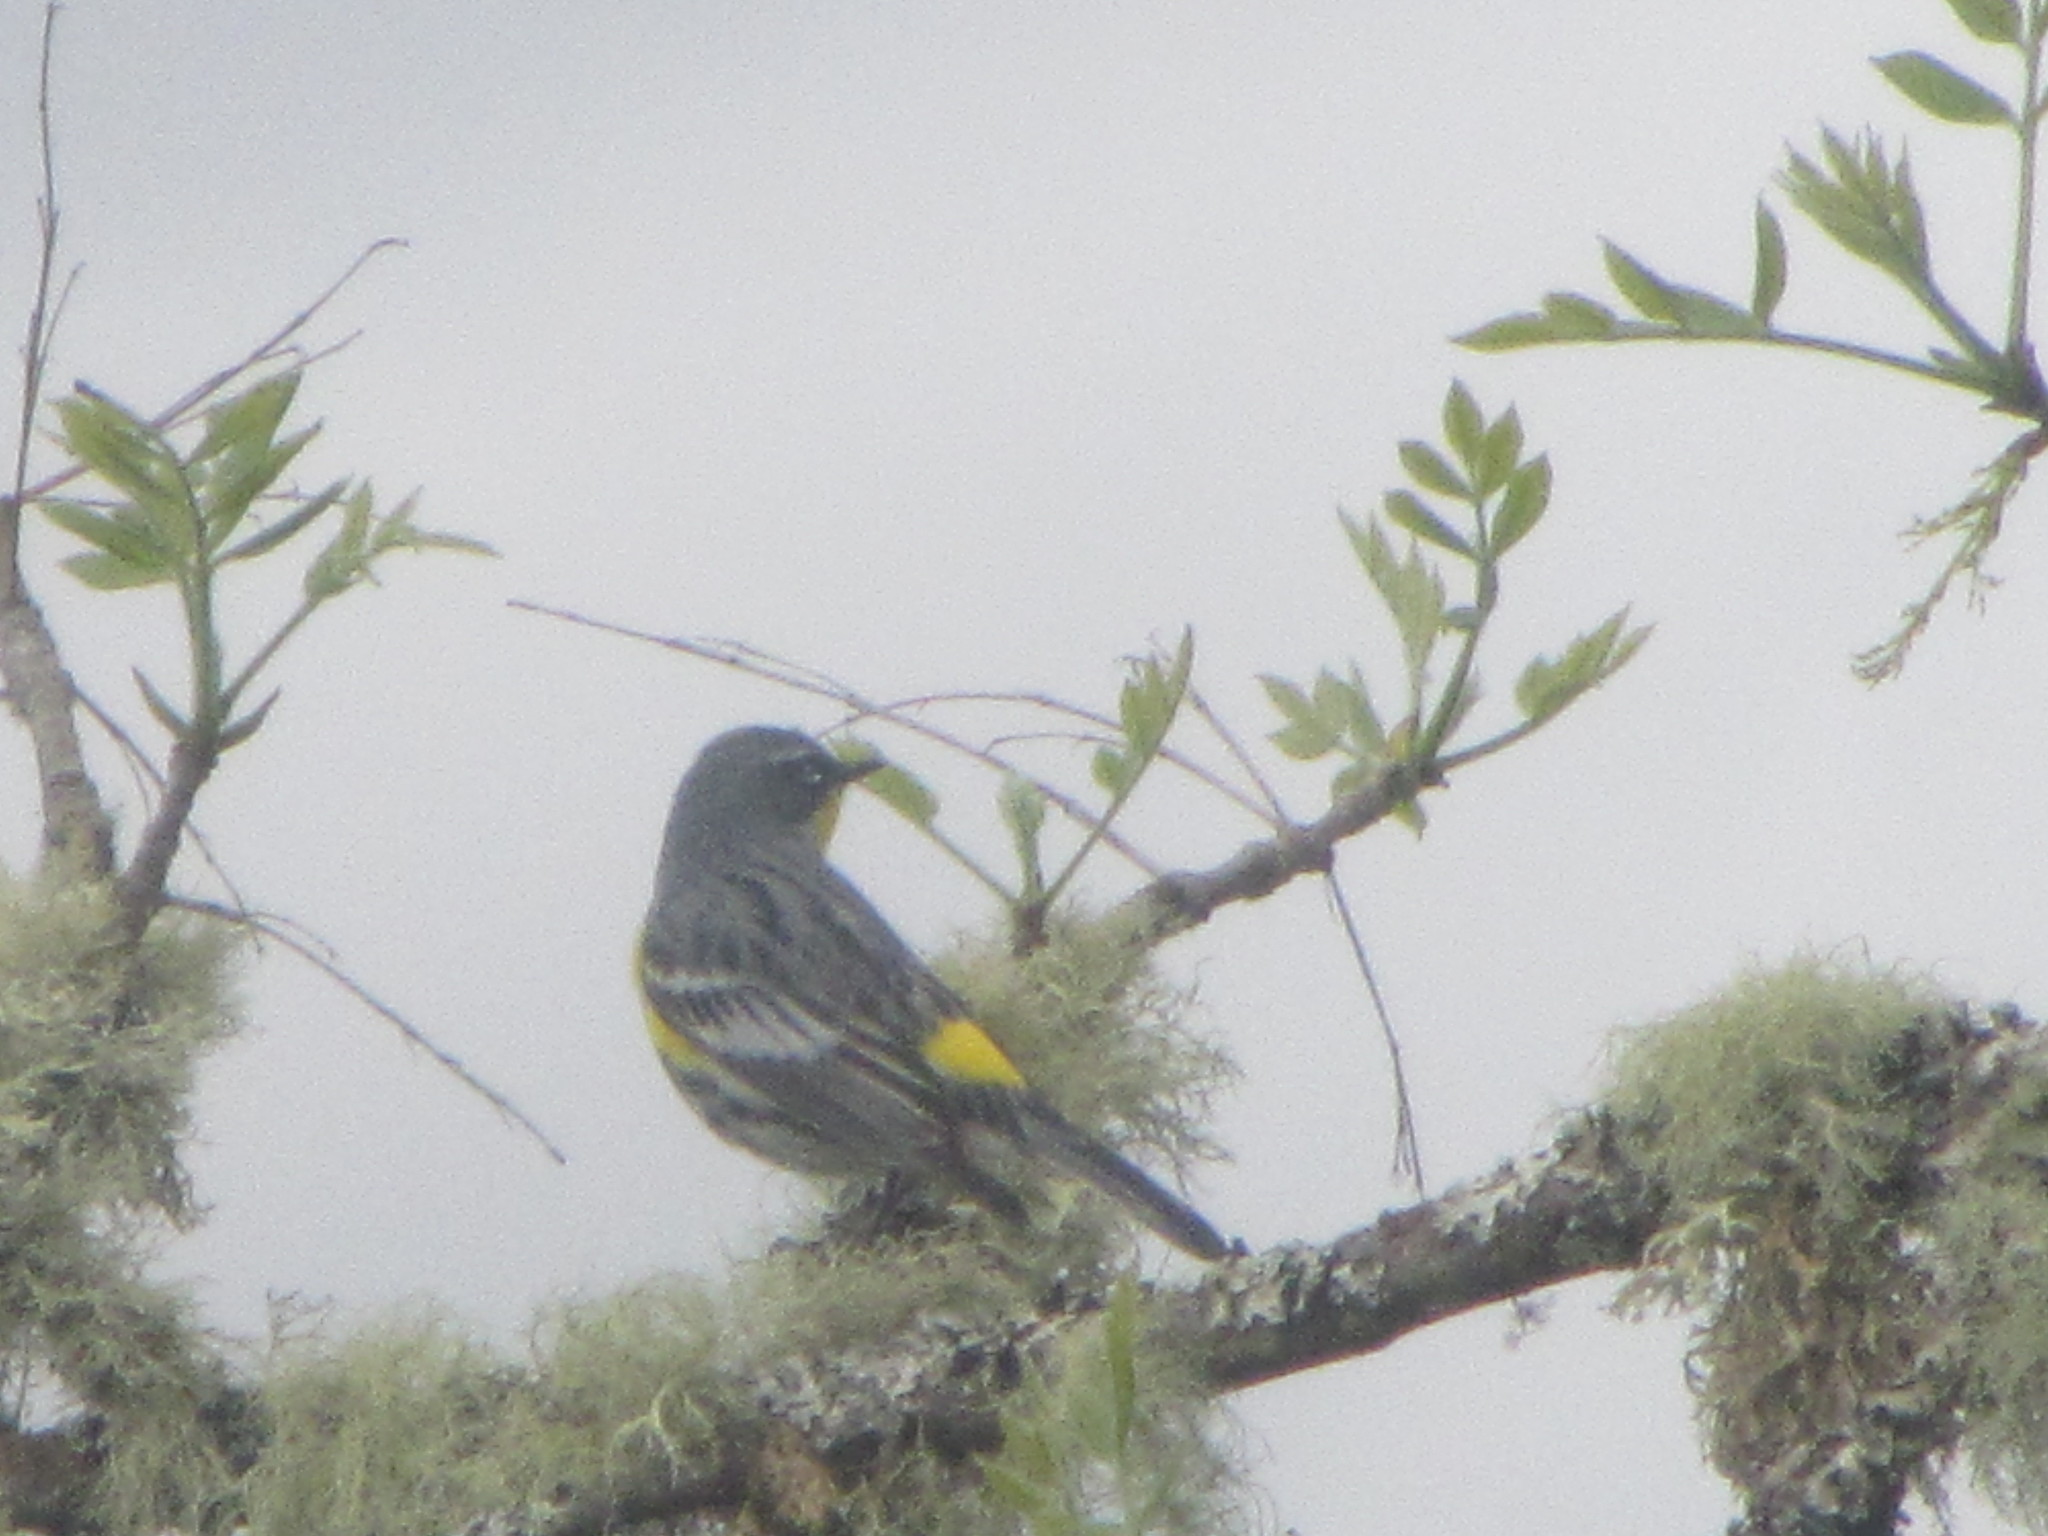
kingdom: Animalia
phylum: Chordata
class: Aves
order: Passeriformes
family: Parulidae
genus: Setophaga
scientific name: Setophaga auduboni
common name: Audubon's warbler
